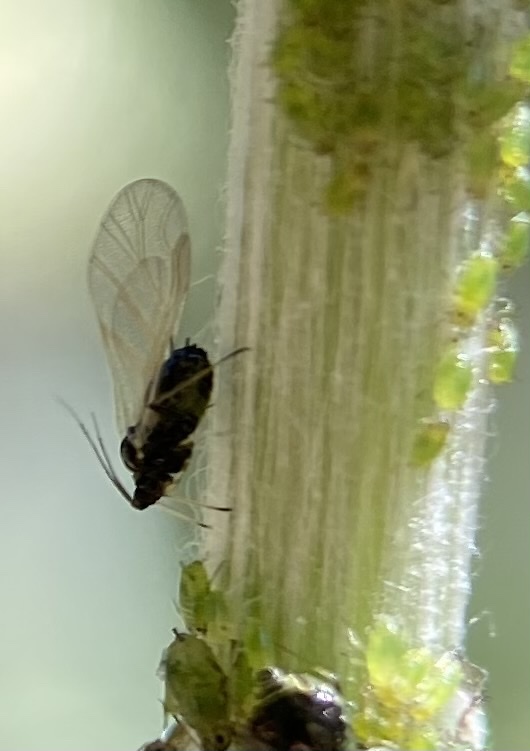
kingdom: Animalia
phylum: Arthropoda
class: Insecta
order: Hemiptera
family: Aphididae
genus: Brachycaudus
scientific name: Brachycaudus cardui
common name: Thistle aphid
